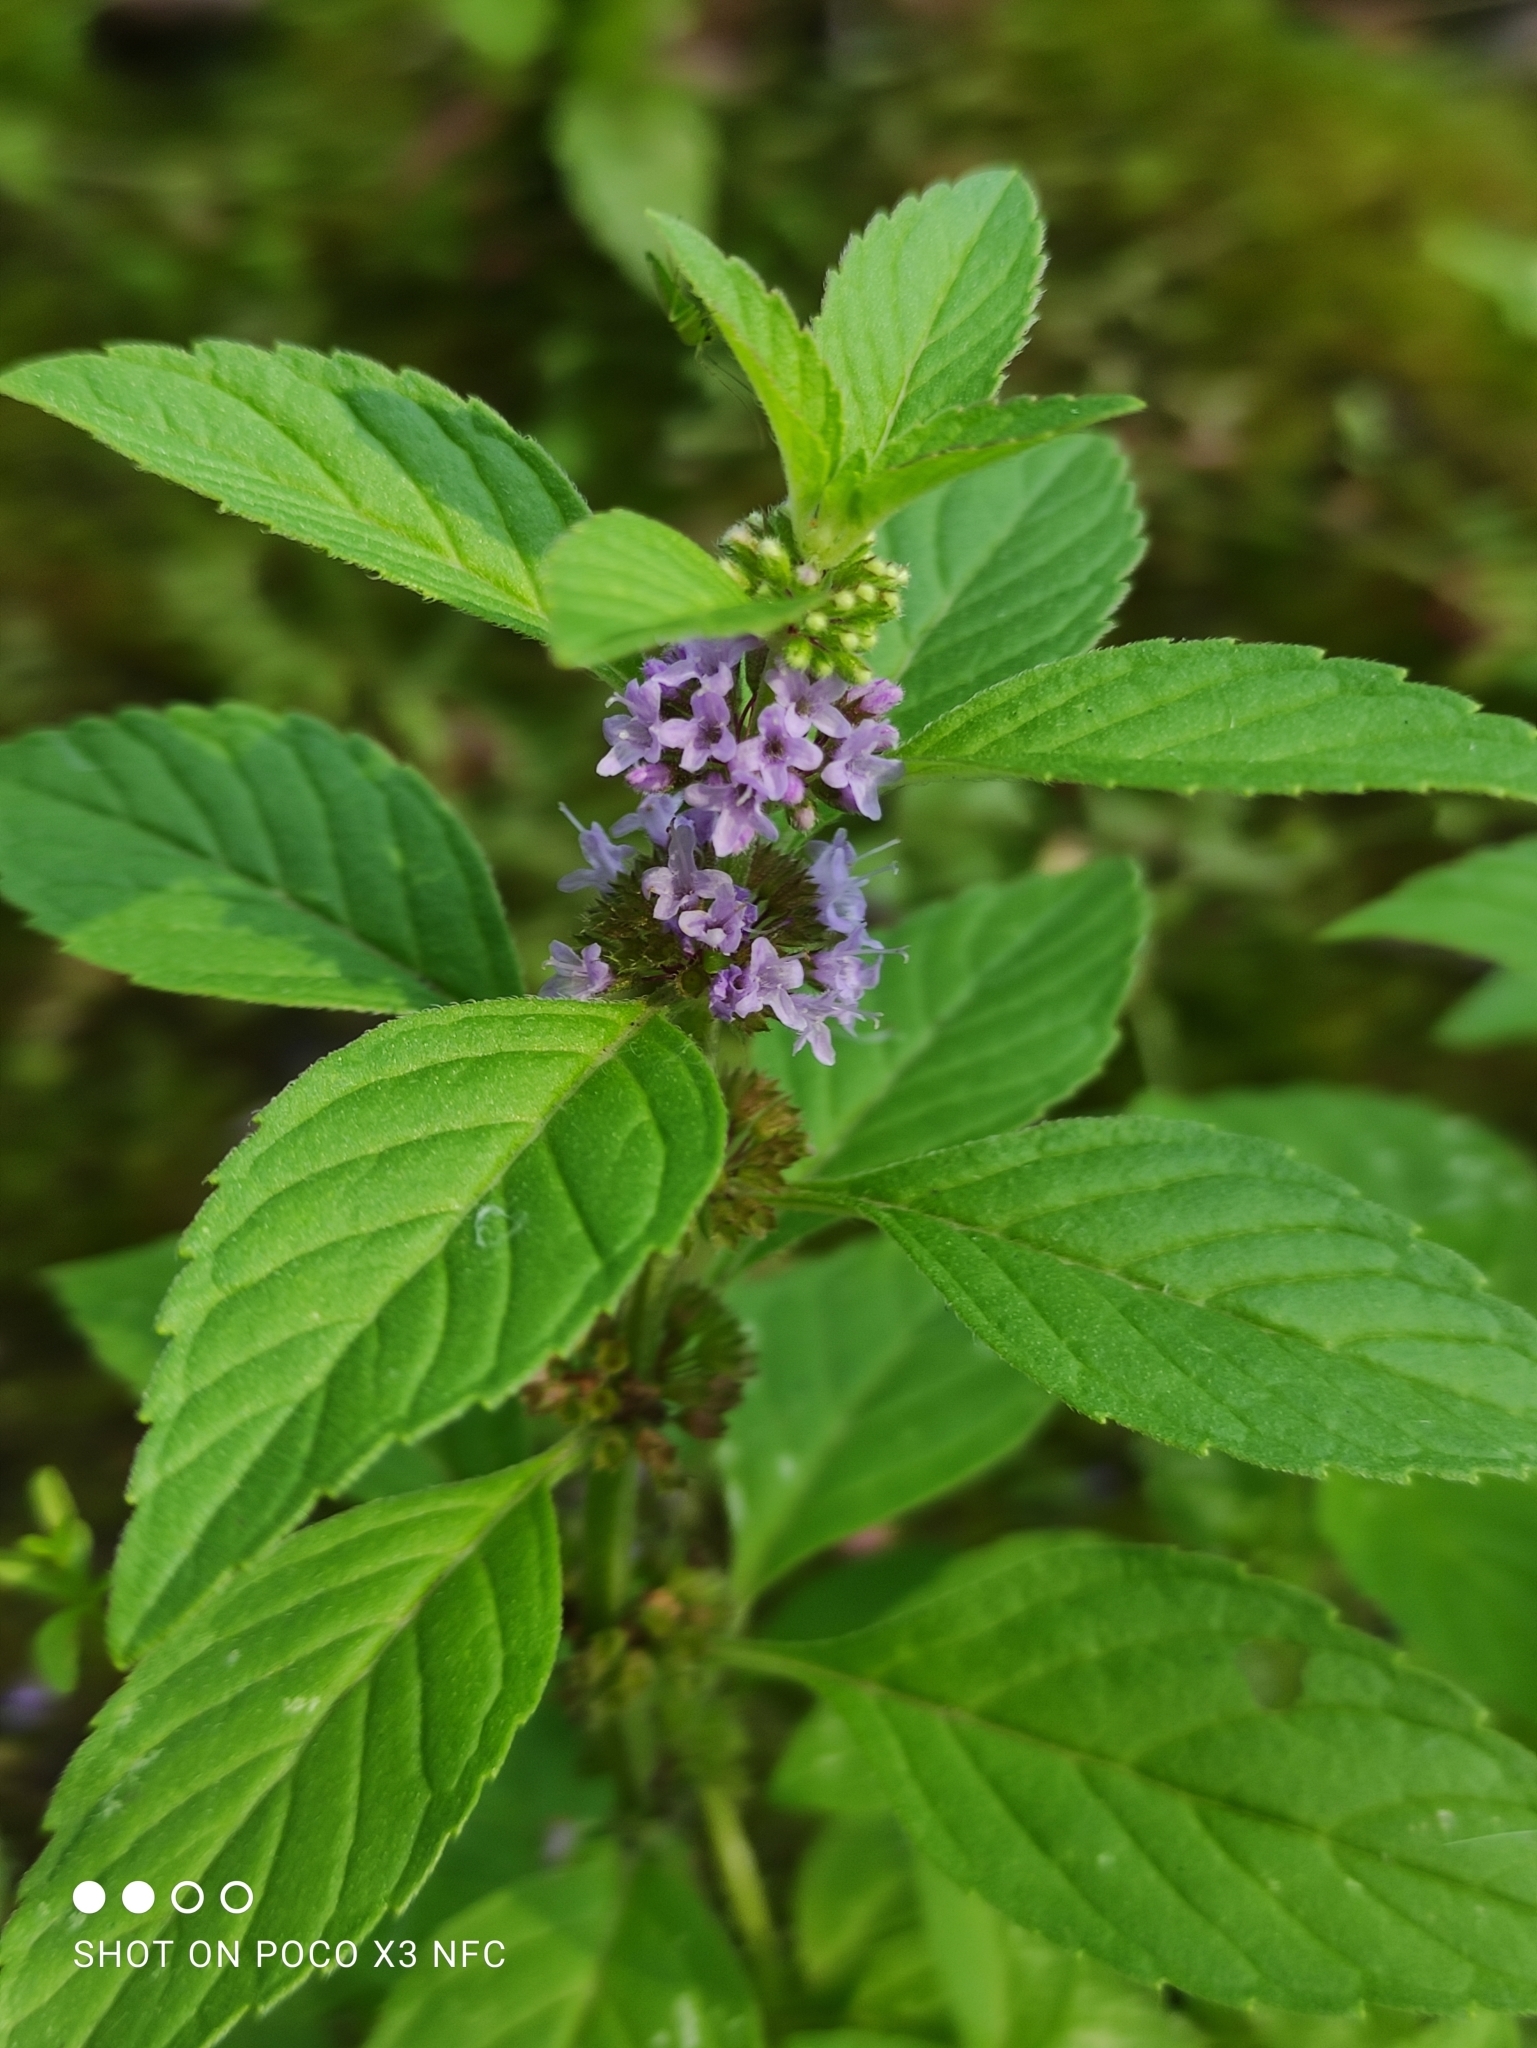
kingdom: Plantae
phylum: Tracheophyta
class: Magnoliopsida
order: Lamiales
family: Lamiaceae
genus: Mentha
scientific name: Mentha arvensis
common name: Corn mint
